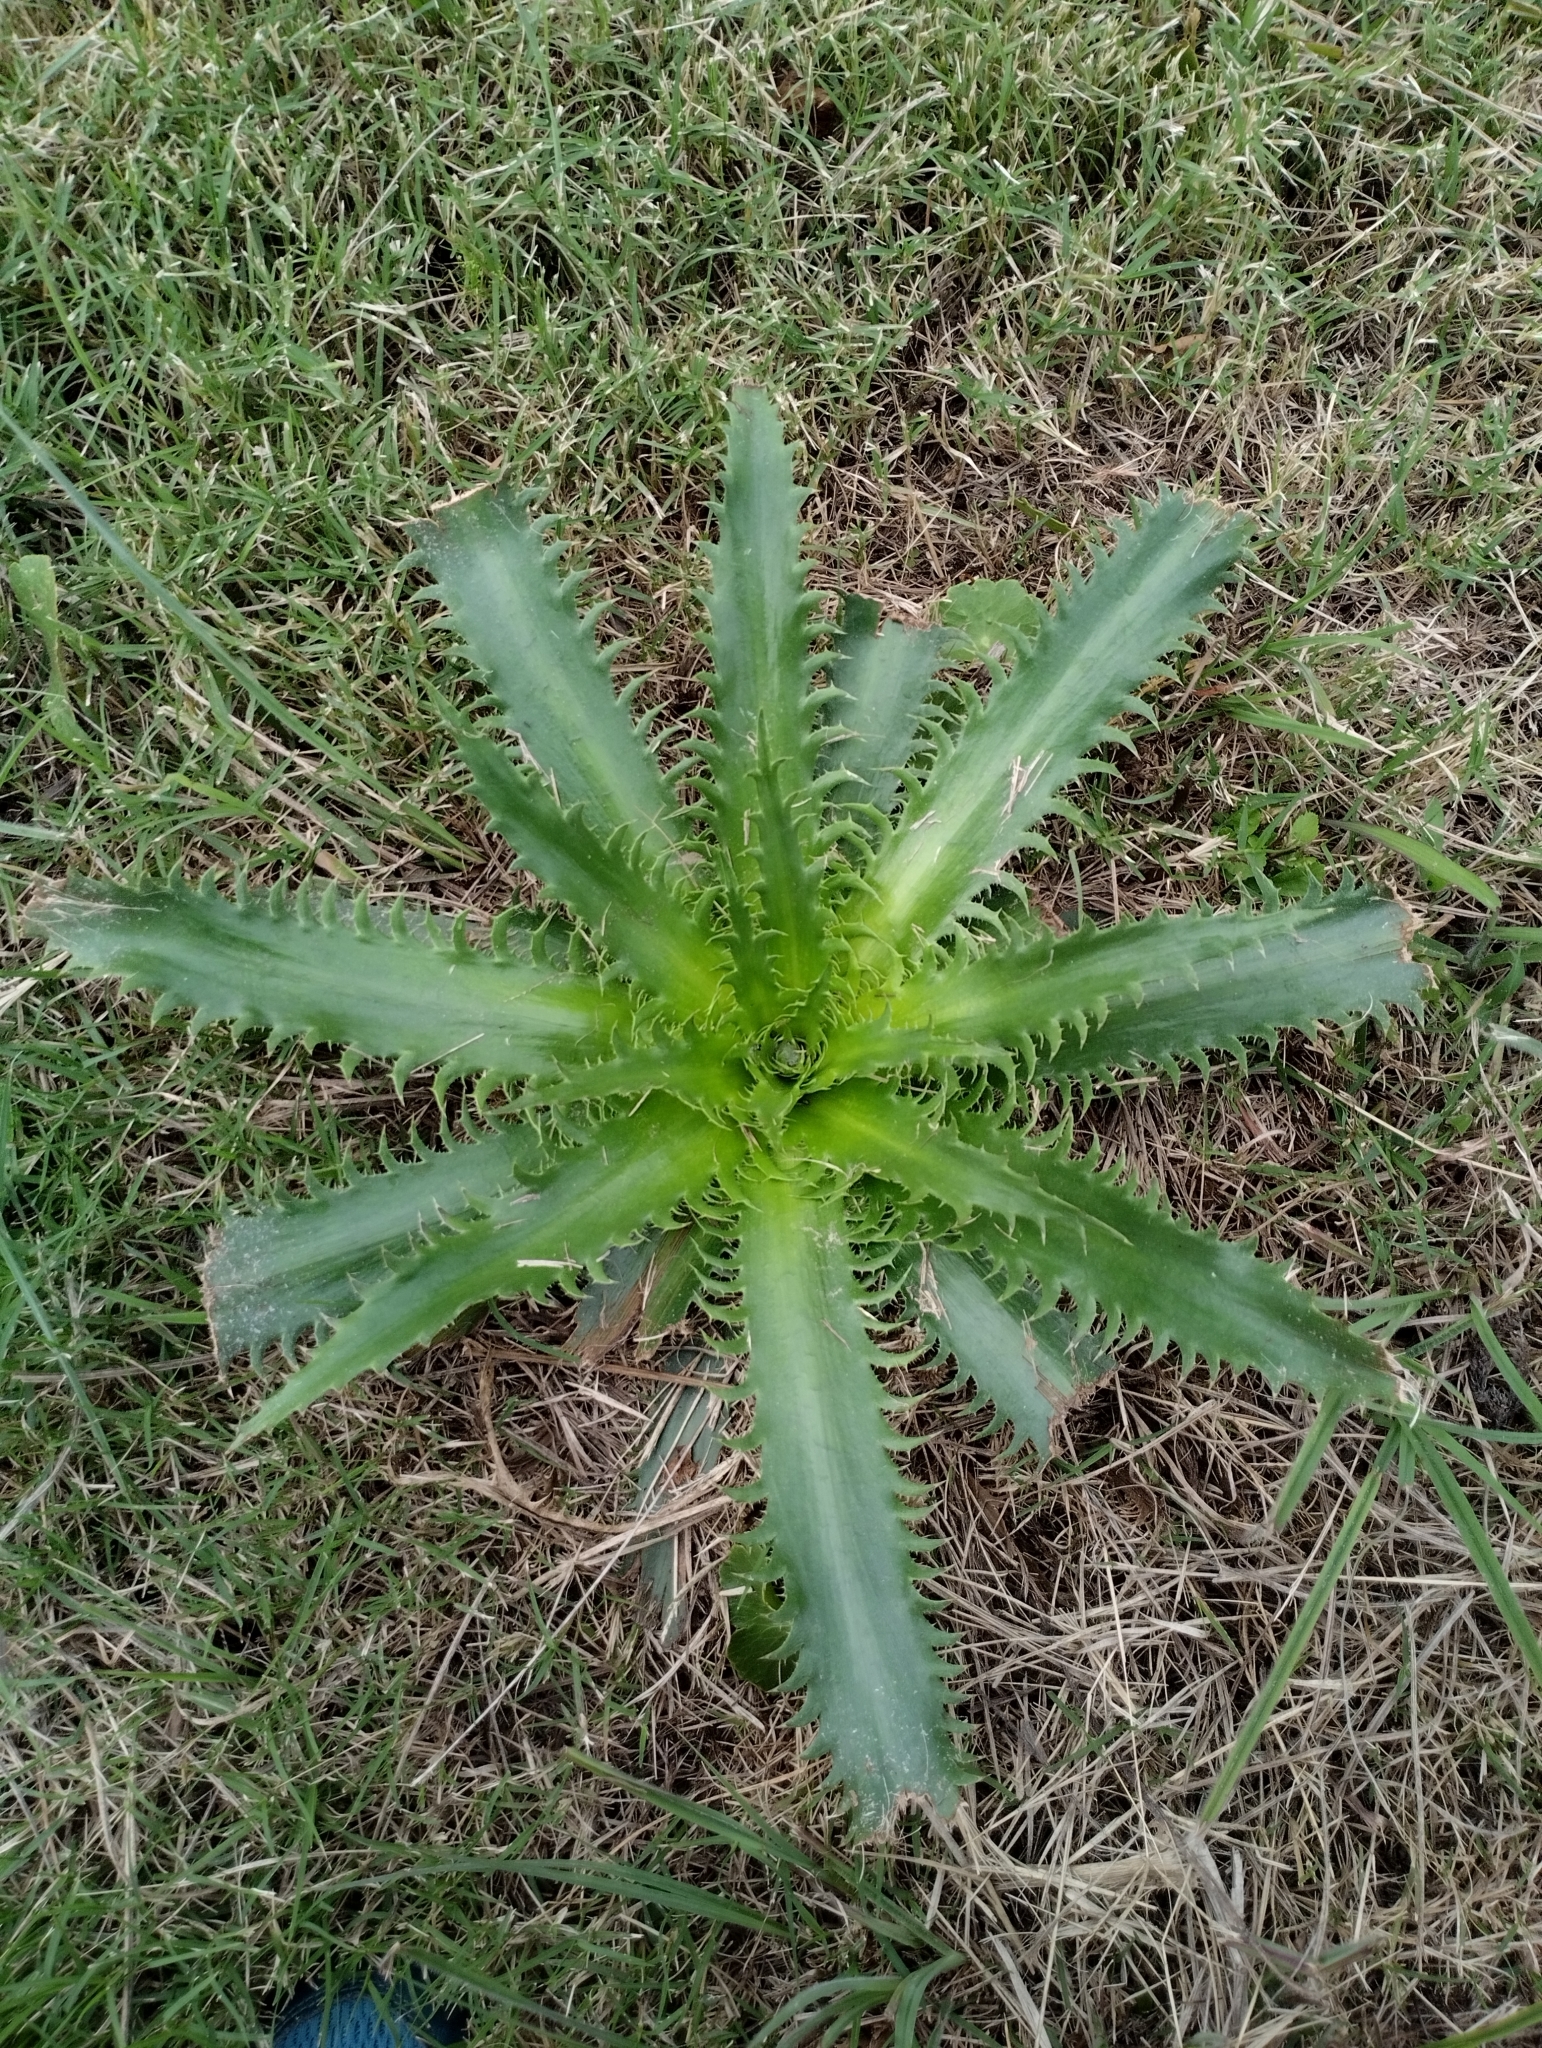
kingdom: Plantae
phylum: Tracheophyta
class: Magnoliopsida
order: Apiales
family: Apiaceae
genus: Eryngium
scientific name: Eryngium serra
